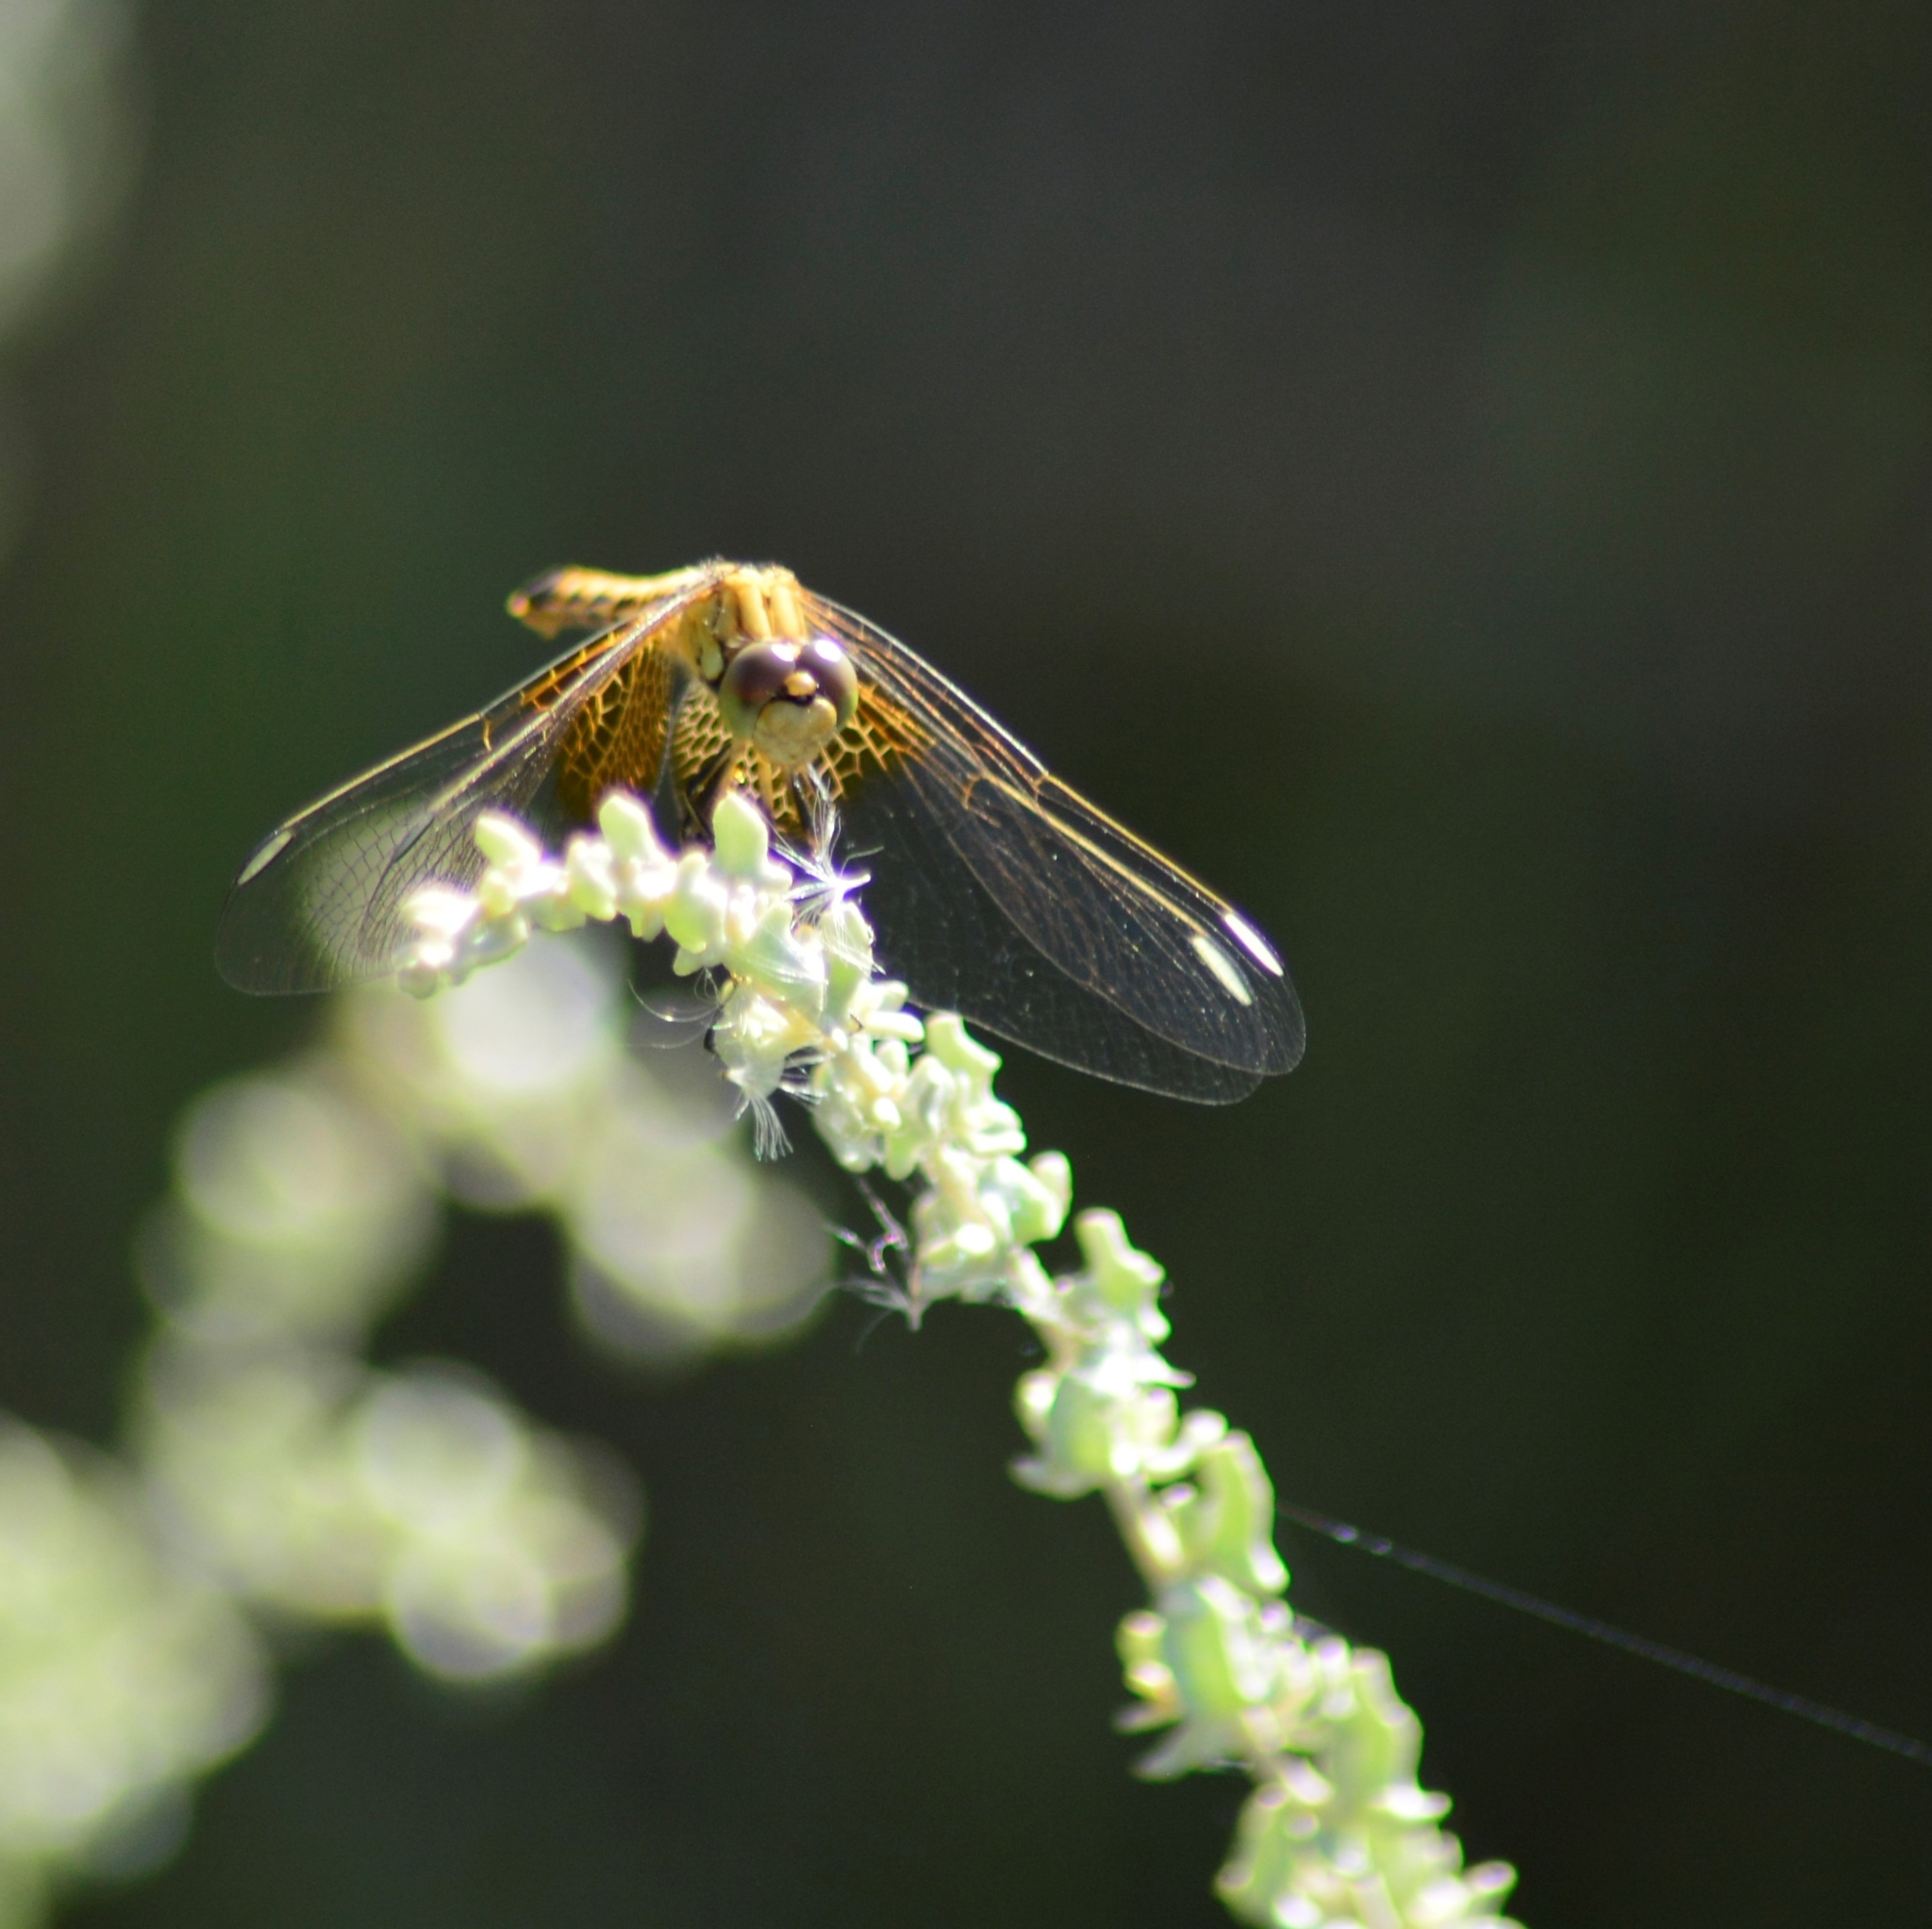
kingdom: Animalia
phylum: Arthropoda
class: Insecta
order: Odonata
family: Libellulidae
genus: Erythrodiplax
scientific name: Erythrodiplax corallina
